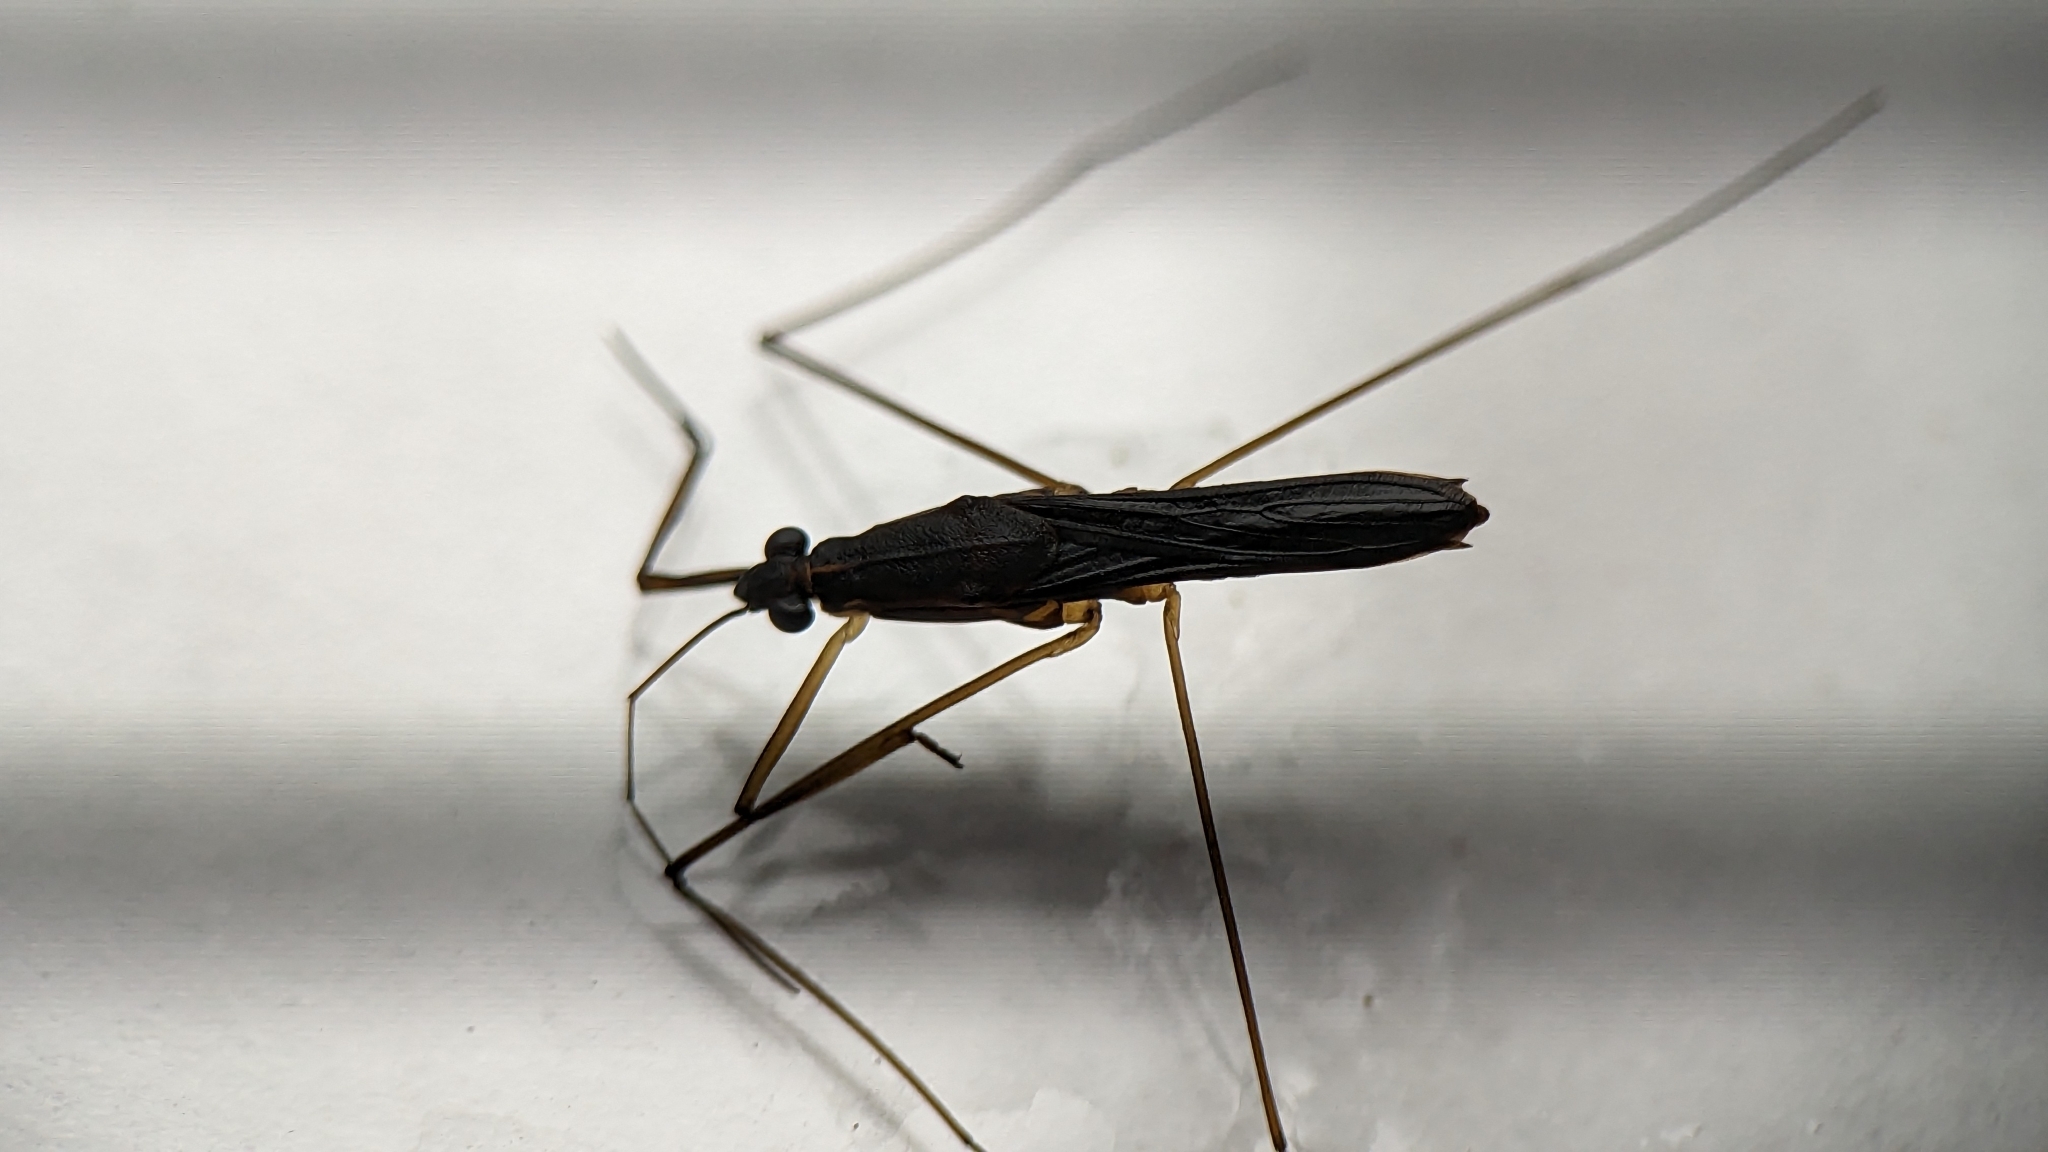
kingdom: Animalia
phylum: Arthropoda
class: Insecta
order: Hemiptera
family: Gerridae
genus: Limnoporus
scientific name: Limnoporus canaliculatus
